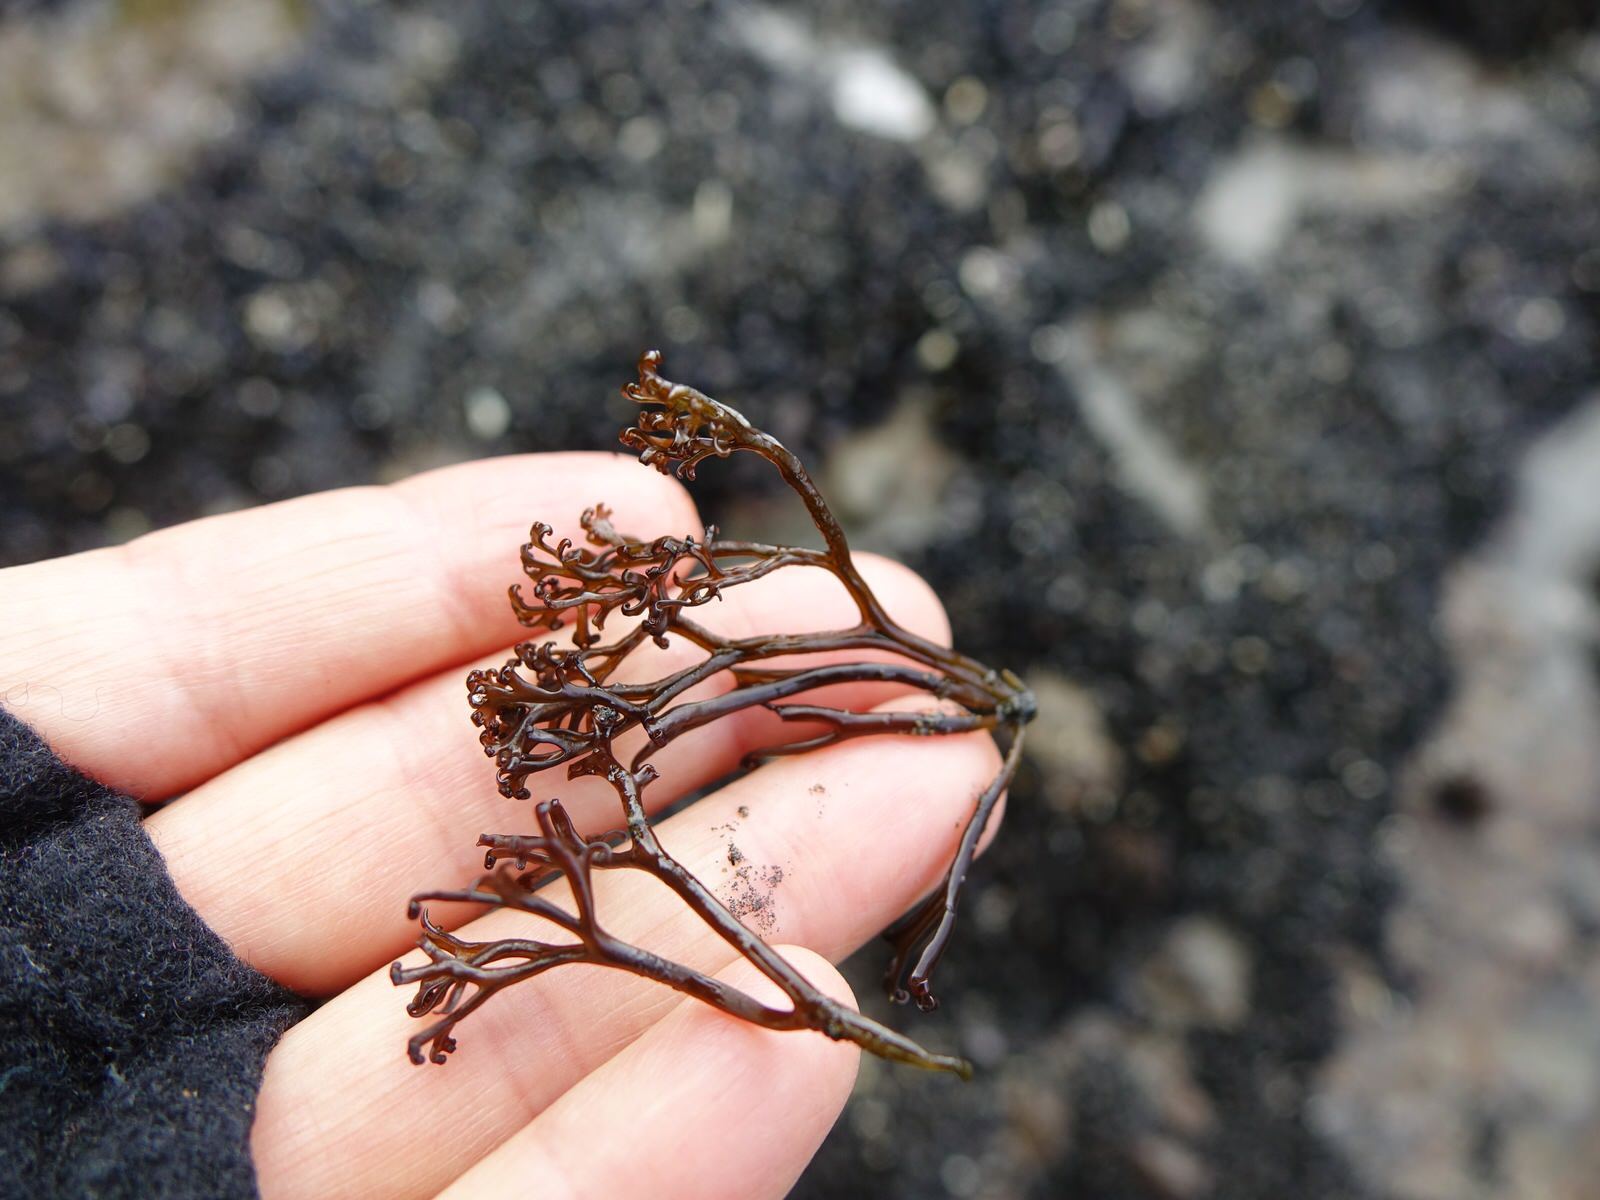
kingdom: Plantae
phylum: Rhodophyta
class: Florideophyceae
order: Gigartinales
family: Gigartinaceae
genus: Psilophycus
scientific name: Psilophycus alveatus
